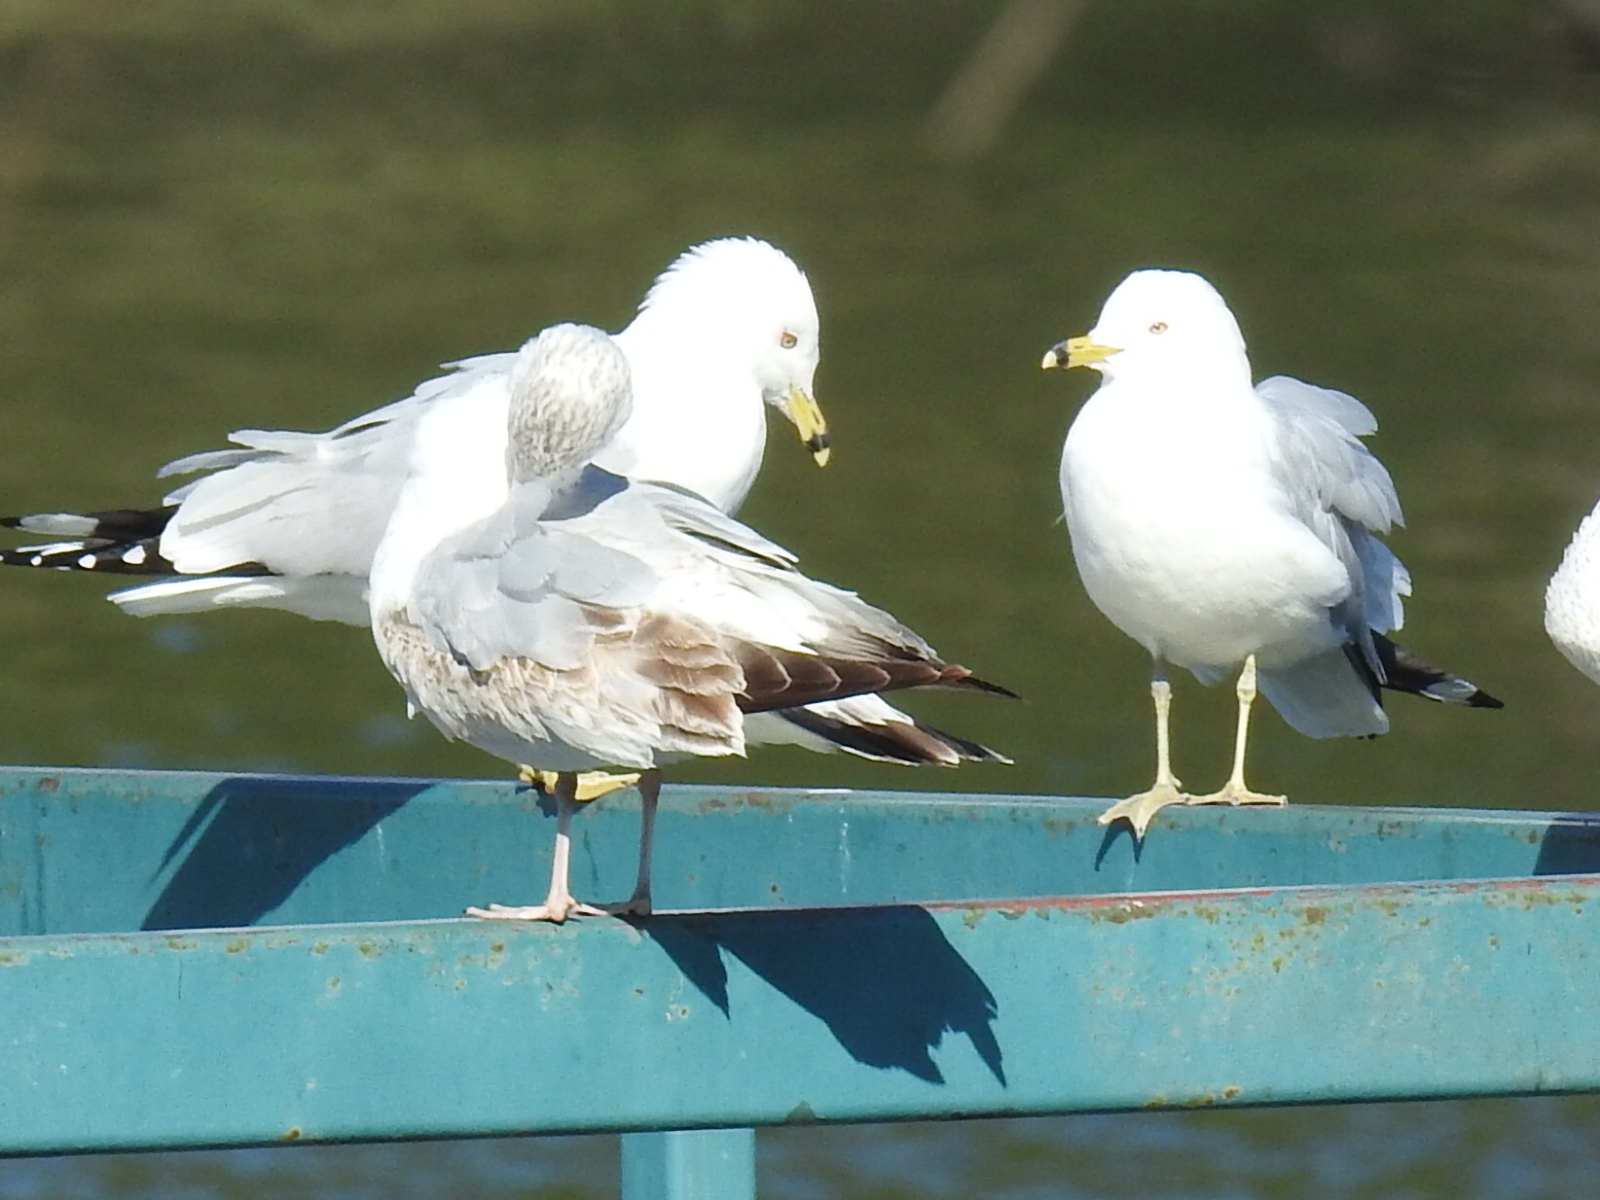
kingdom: Animalia
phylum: Chordata
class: Aves
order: Charadriiformes
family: Laridae
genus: Larus
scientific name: Larus delawarensis
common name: Ring-billed gull
